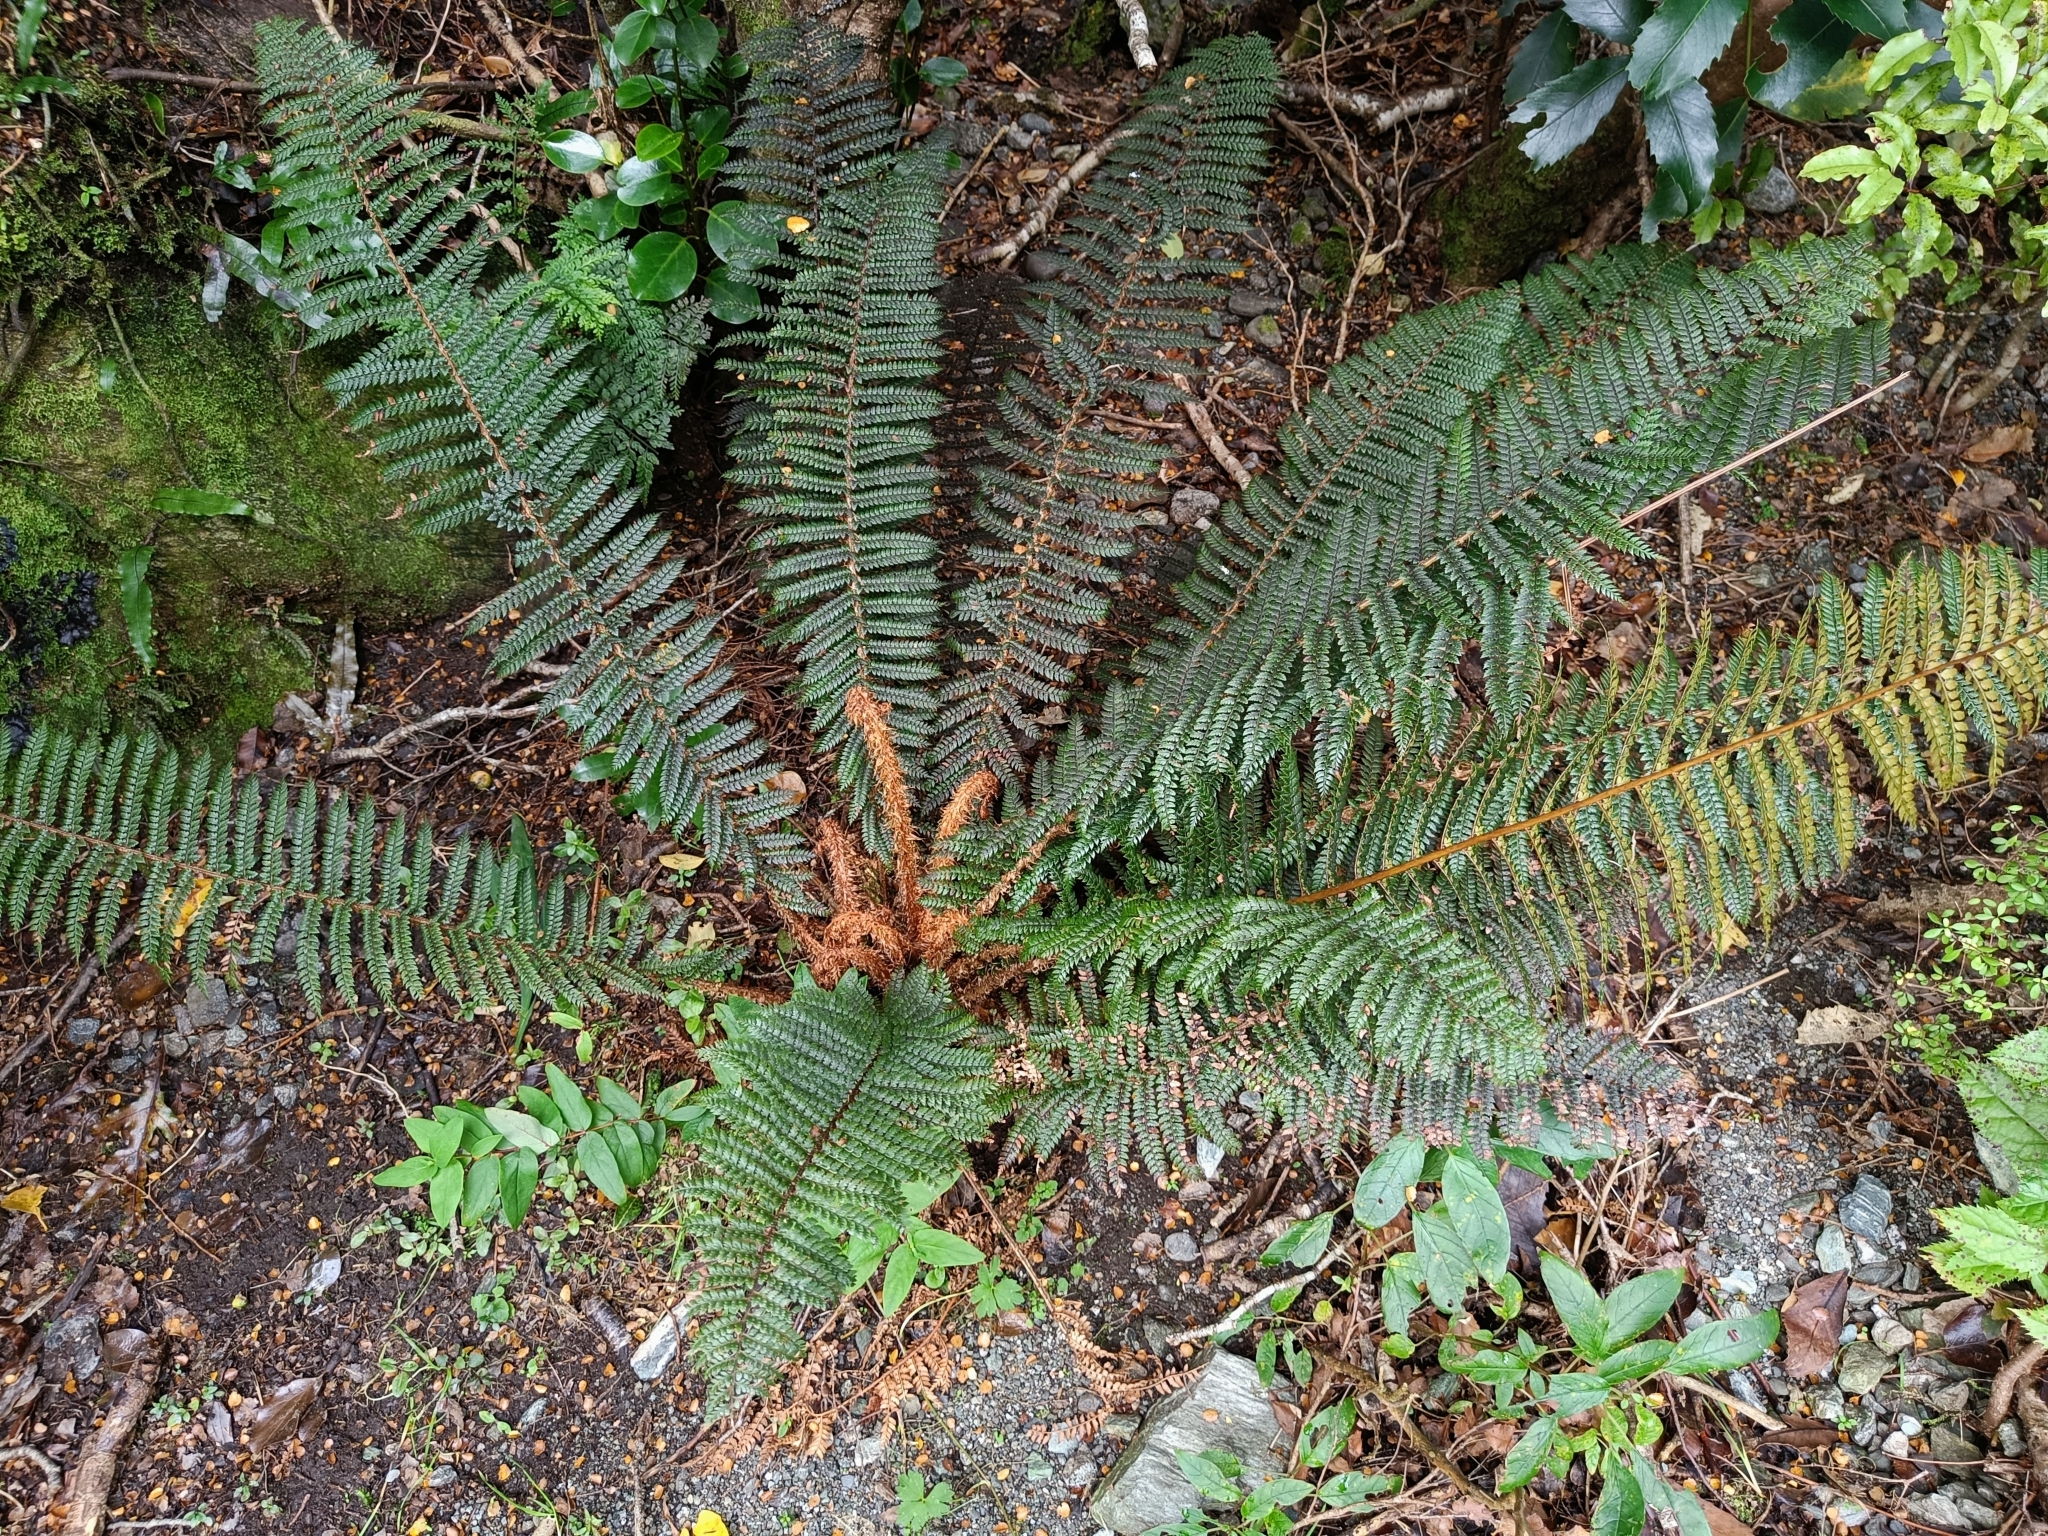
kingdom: Plantae
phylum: Tracheophyta
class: Polypodiopsida
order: Polypodiales
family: Dryopteridaceae
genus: Polystichum
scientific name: Polystichum vestitum
